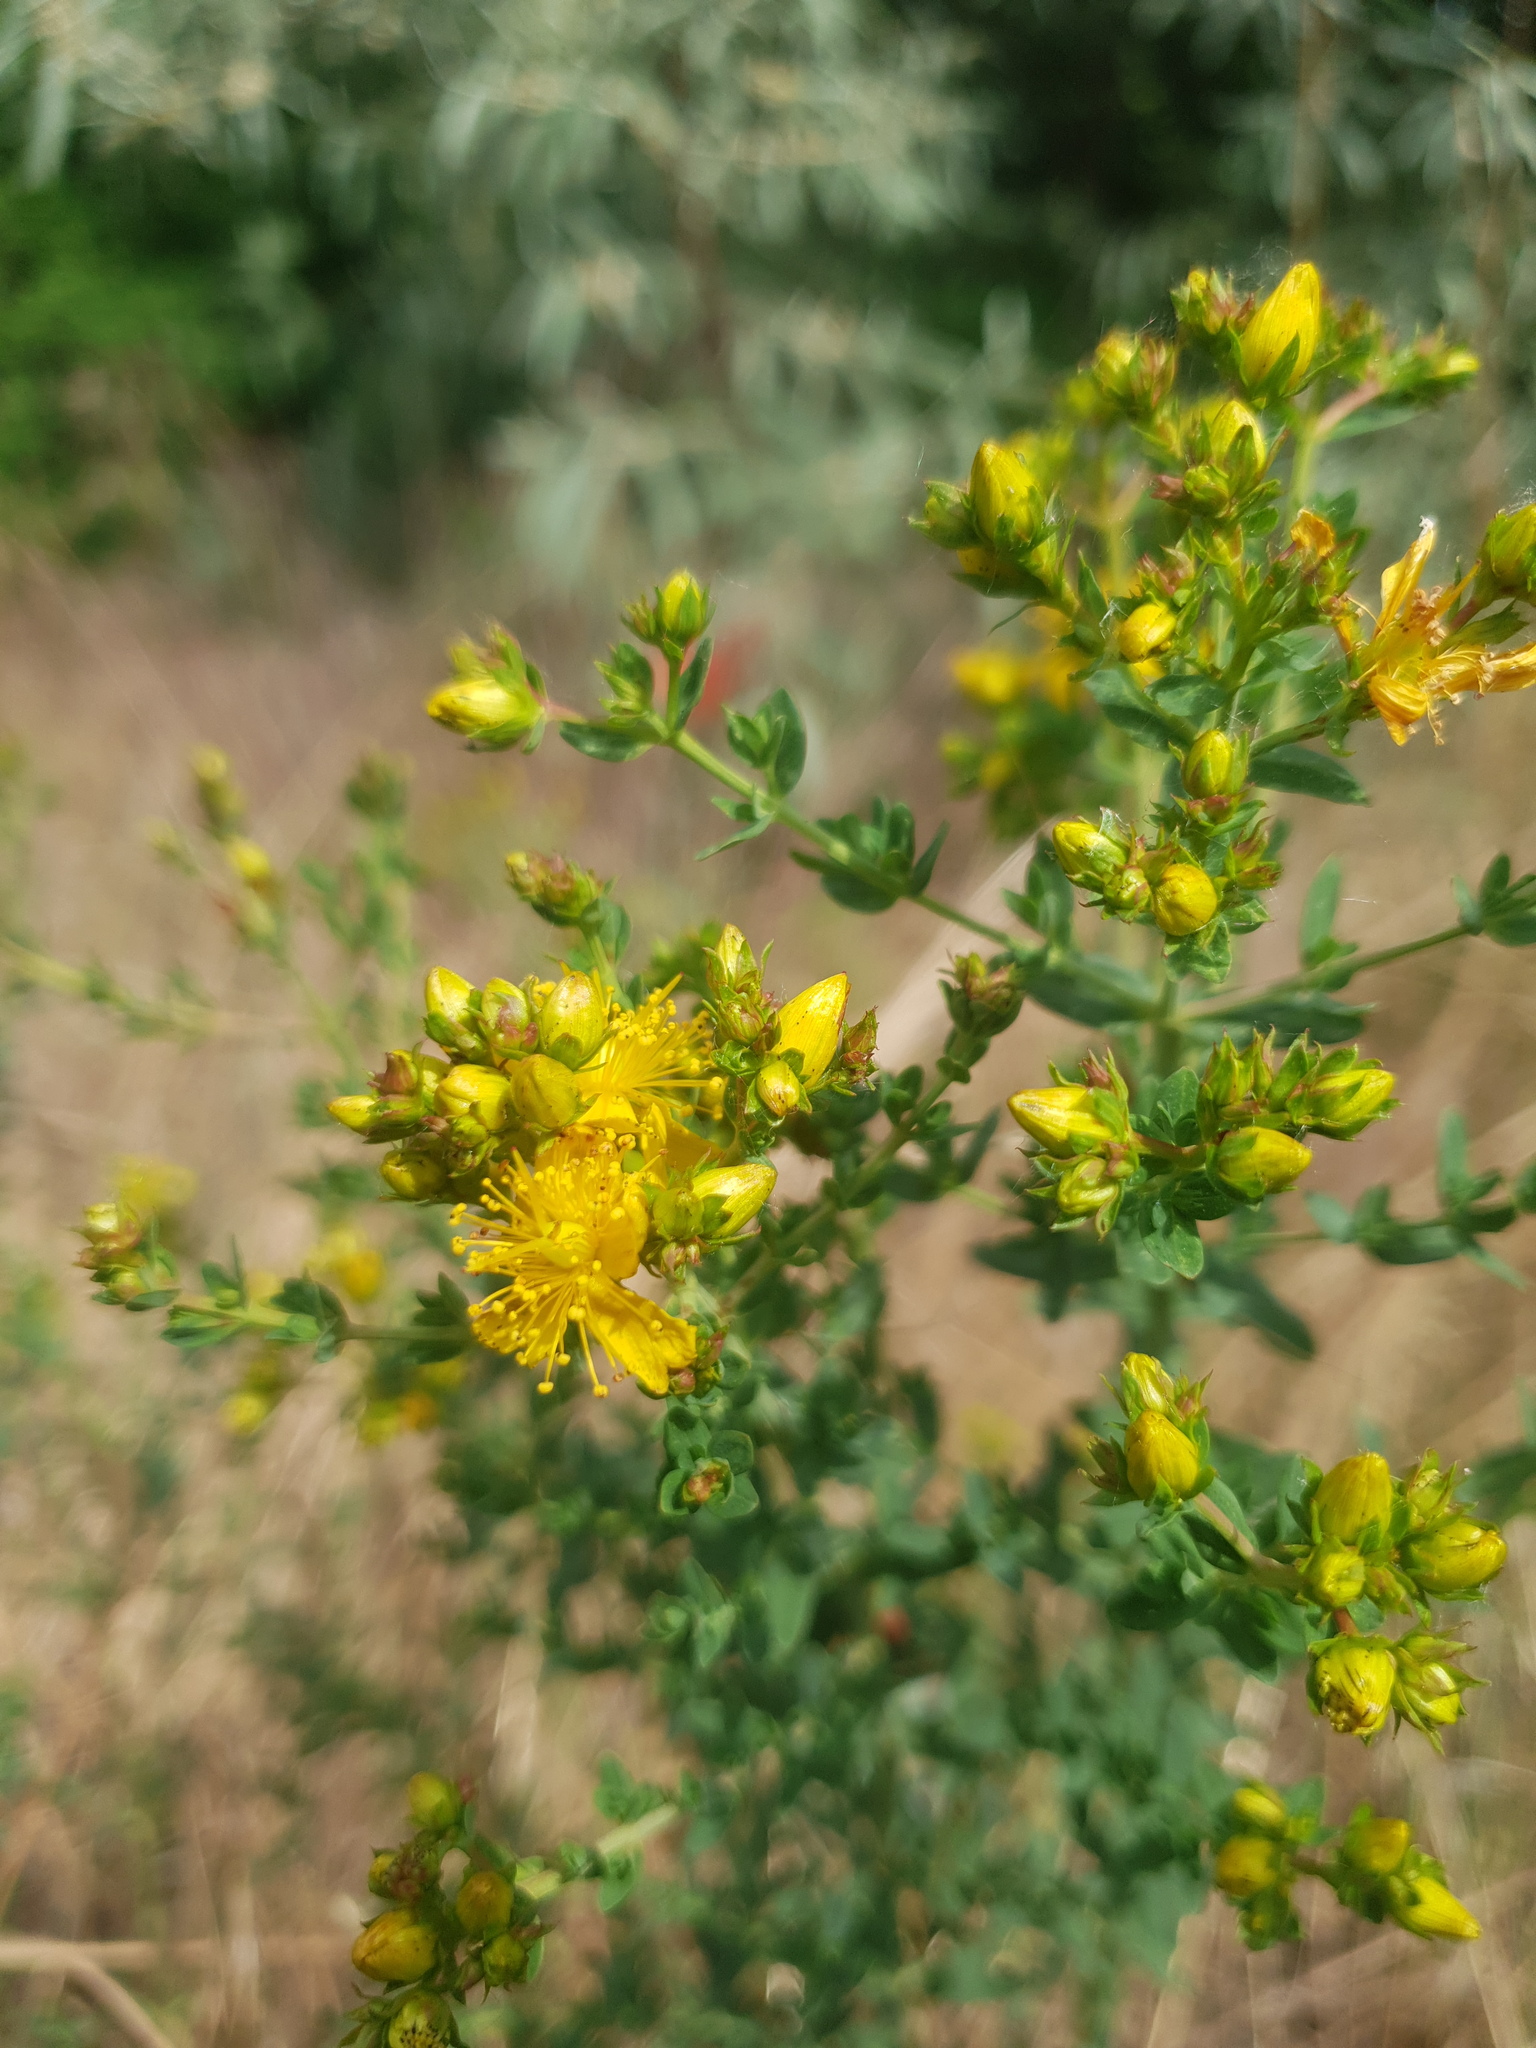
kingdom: Plantae
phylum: Tracheophyta
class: Magnoliopsida
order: Malpighiales
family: Hypericaceae
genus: Hypericum
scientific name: Hypericum perforatum
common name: Common st. johnswort
